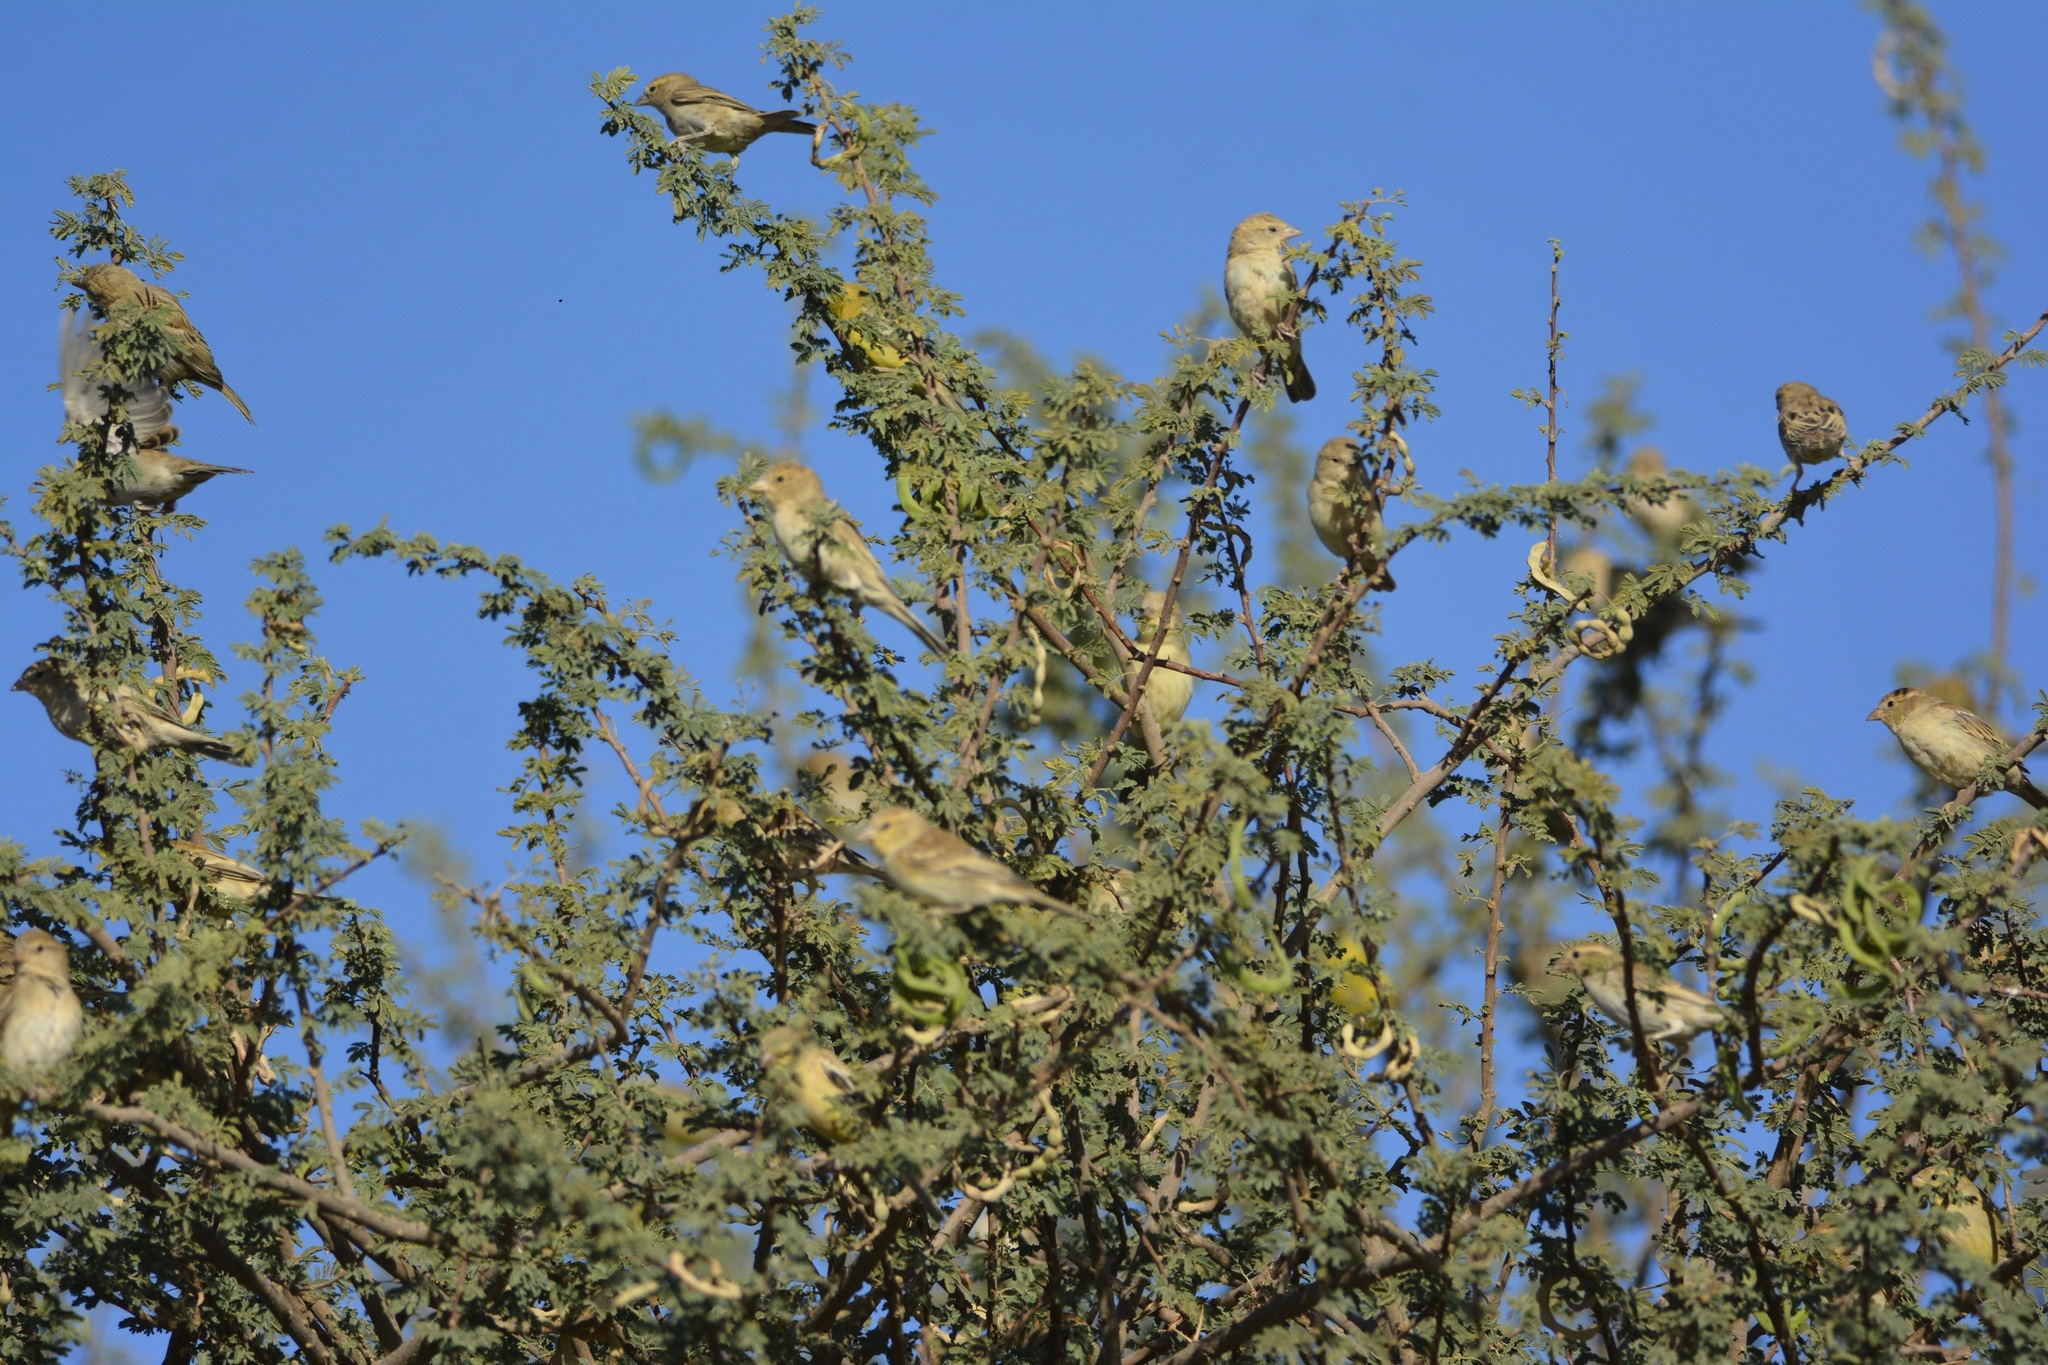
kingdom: Animalia
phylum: Chordata
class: Aves
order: Passeriformes
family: Passeridae
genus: Passer
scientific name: Passer luteus
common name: Sudan golden sparrow
